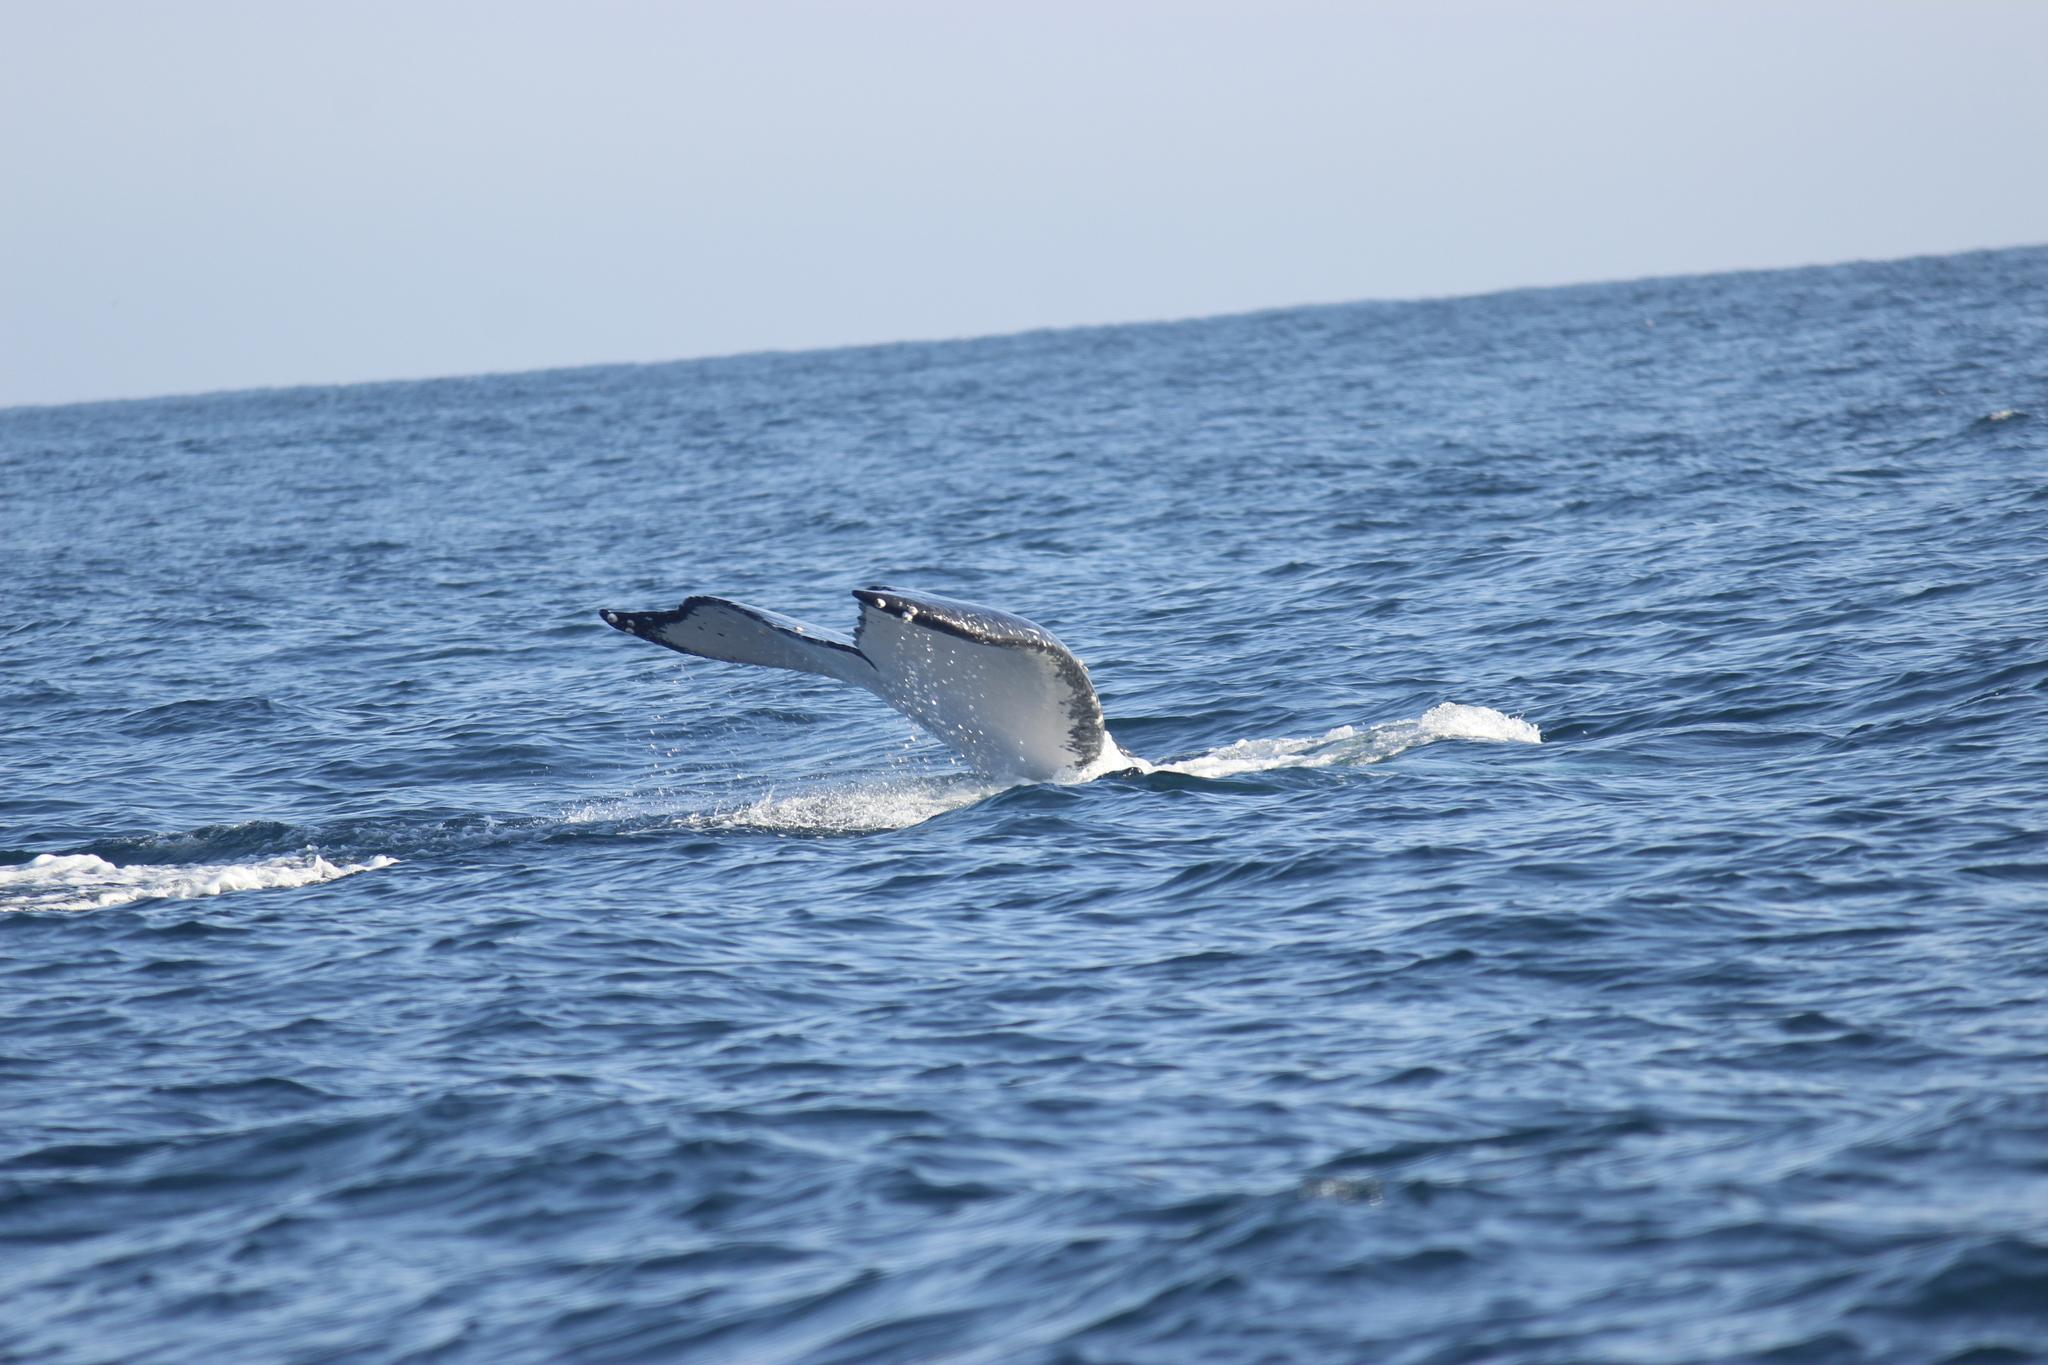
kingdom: Animalia
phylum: Chordata
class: Mammalia
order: Cetacea
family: Balaenopteridae
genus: Megaptera
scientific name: Megaptera novaeangliae
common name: Humpback whale
